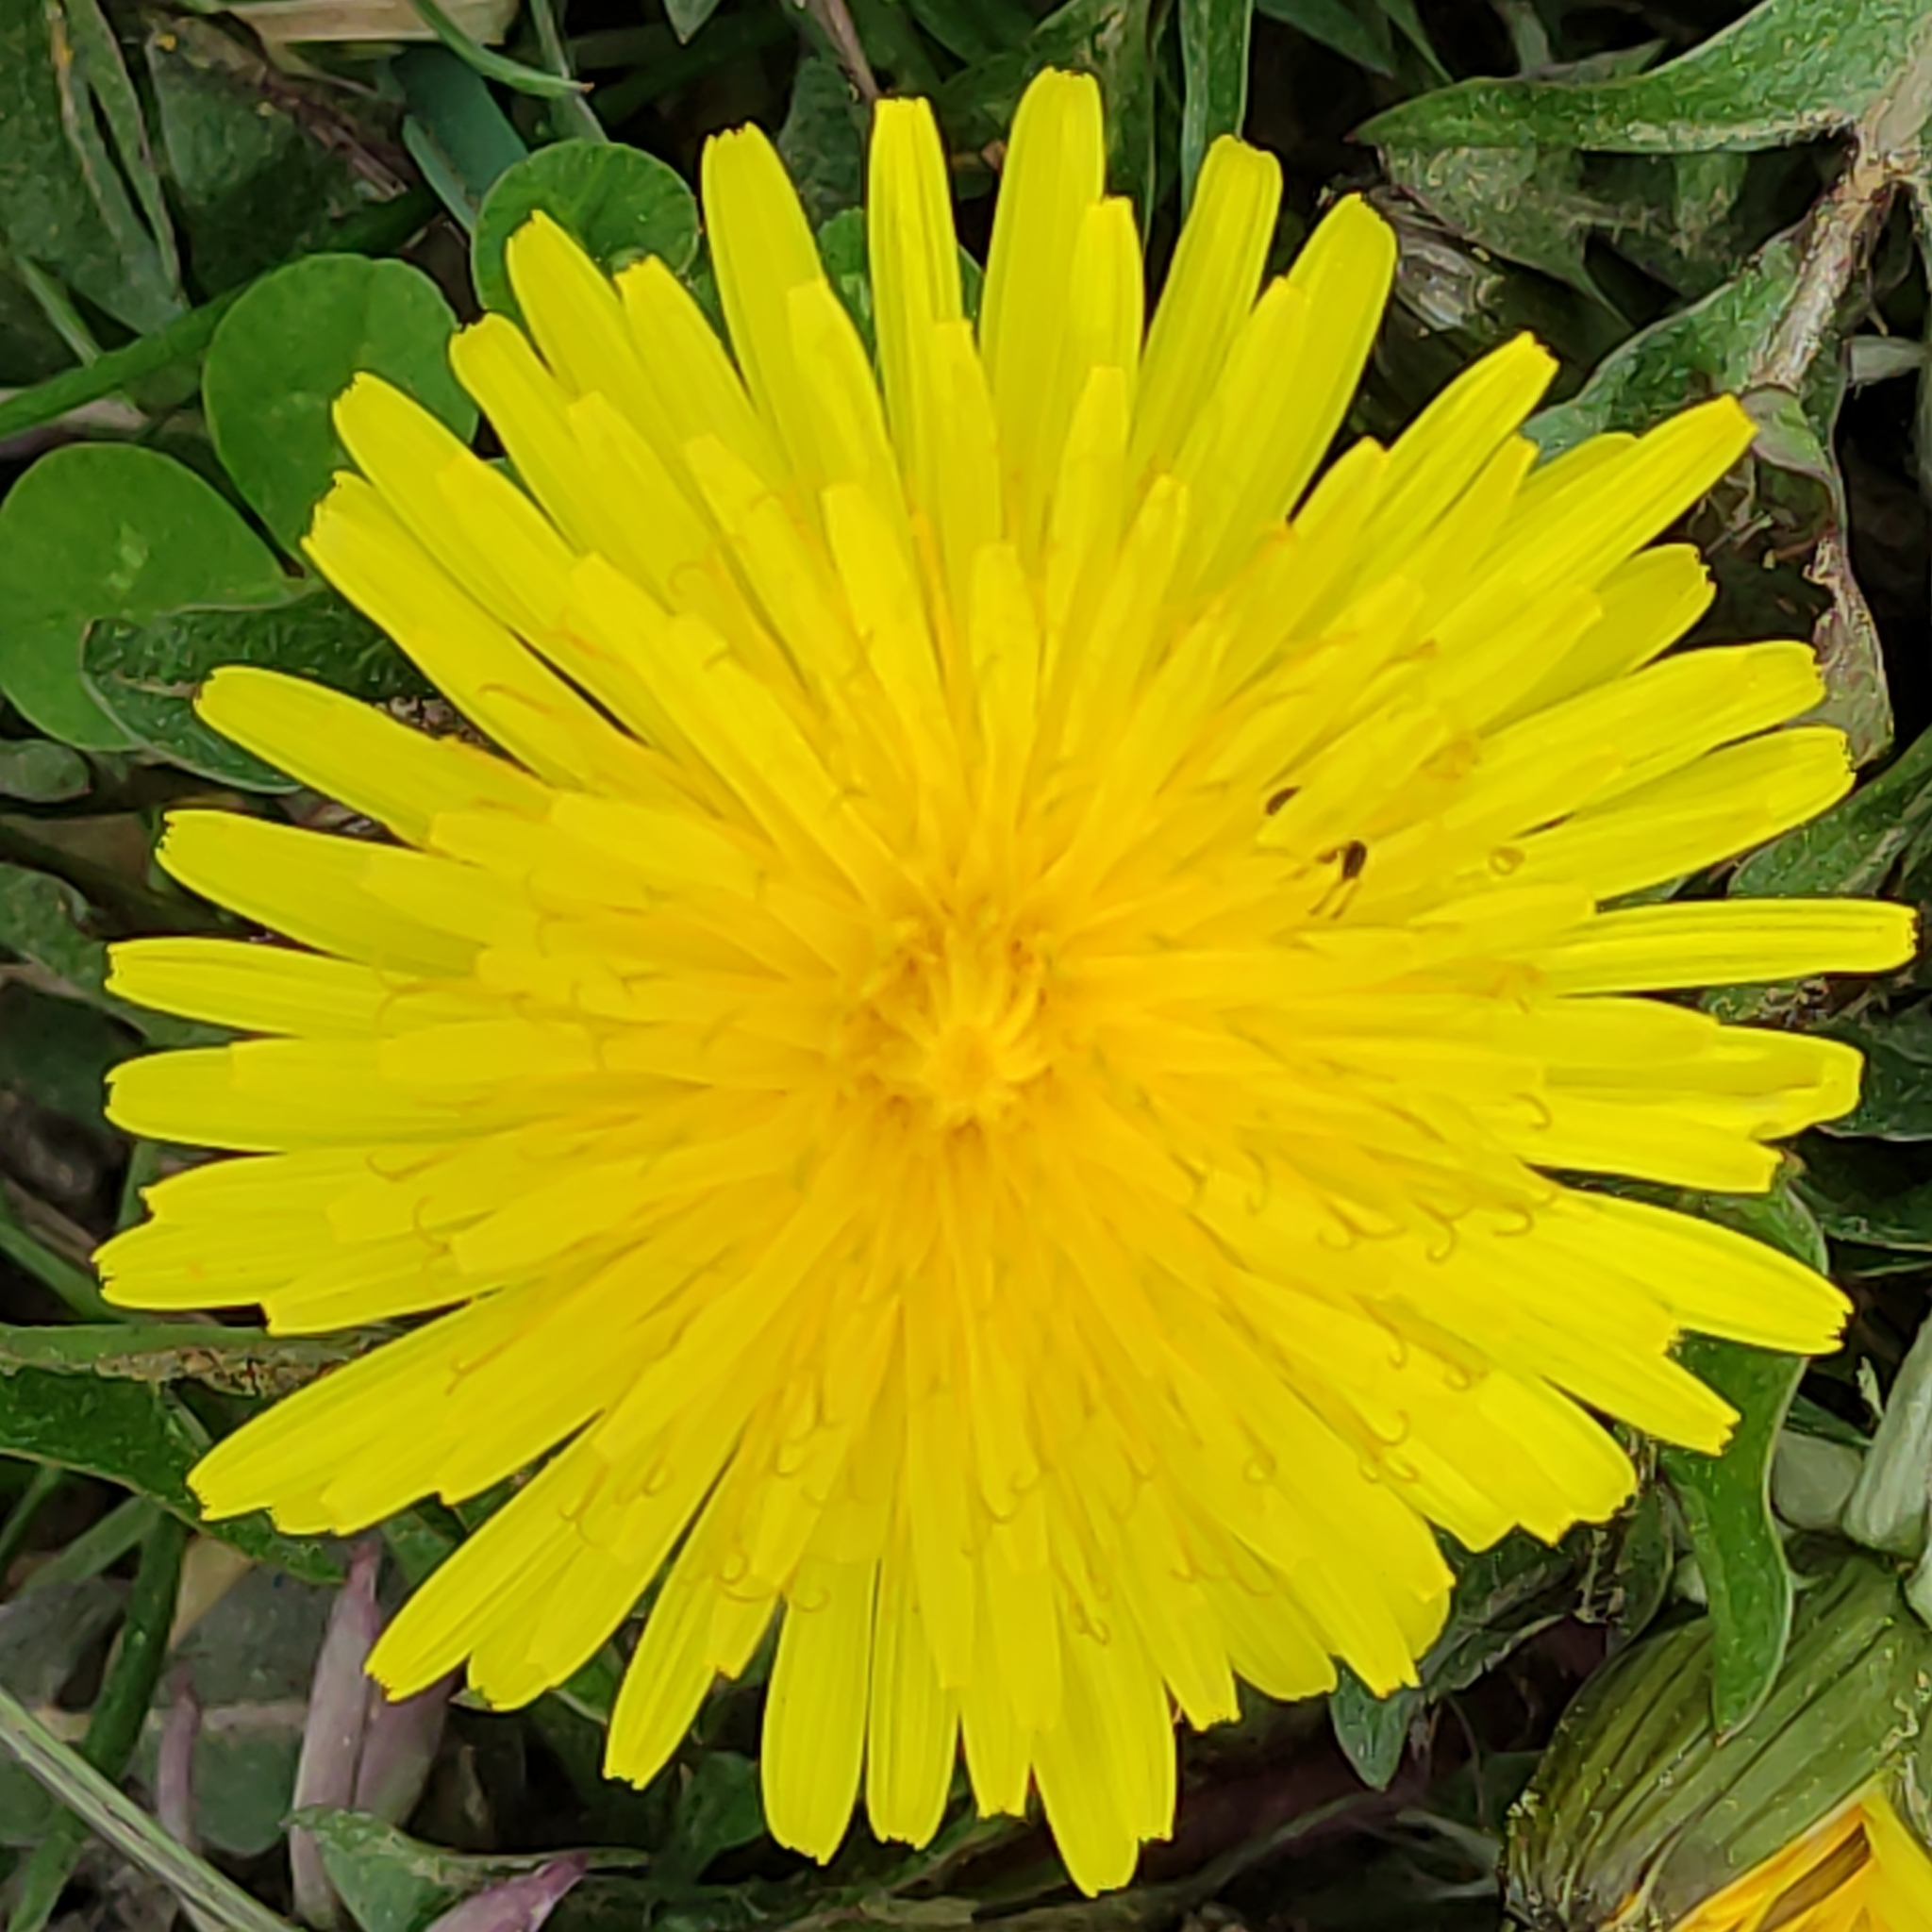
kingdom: Plantae
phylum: Tracheophyta
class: Magnoliopsida
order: Asterales
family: Asteraceae
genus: Taraxacum
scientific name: Taraxacum officinale
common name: Common dandelion
